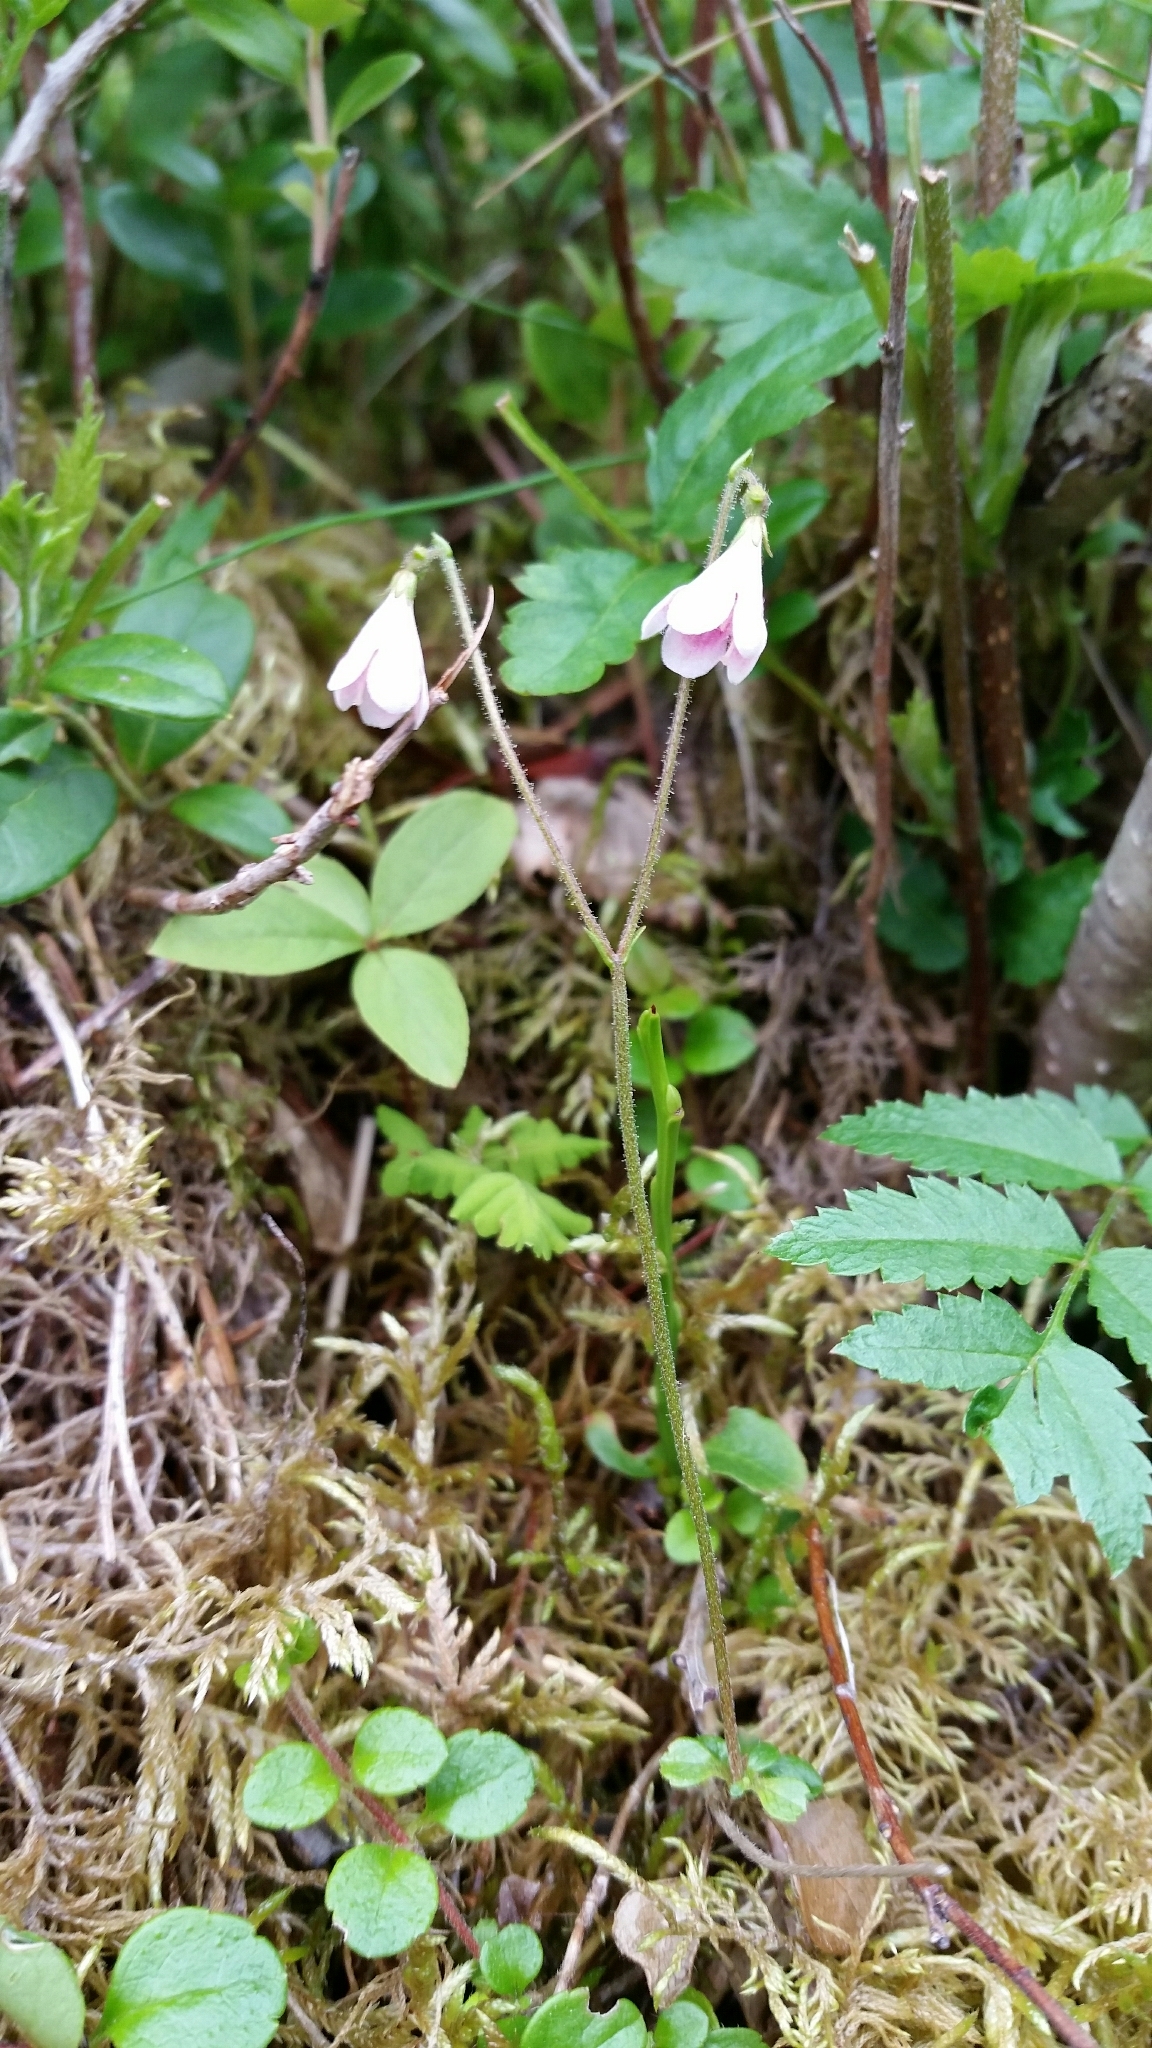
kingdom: Plantae
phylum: Tracheophyta
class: Magnoliopsida
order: Dipsacales
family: Caprifoliaceae
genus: Linnaea
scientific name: Linnaea borealis
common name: Twinflower
